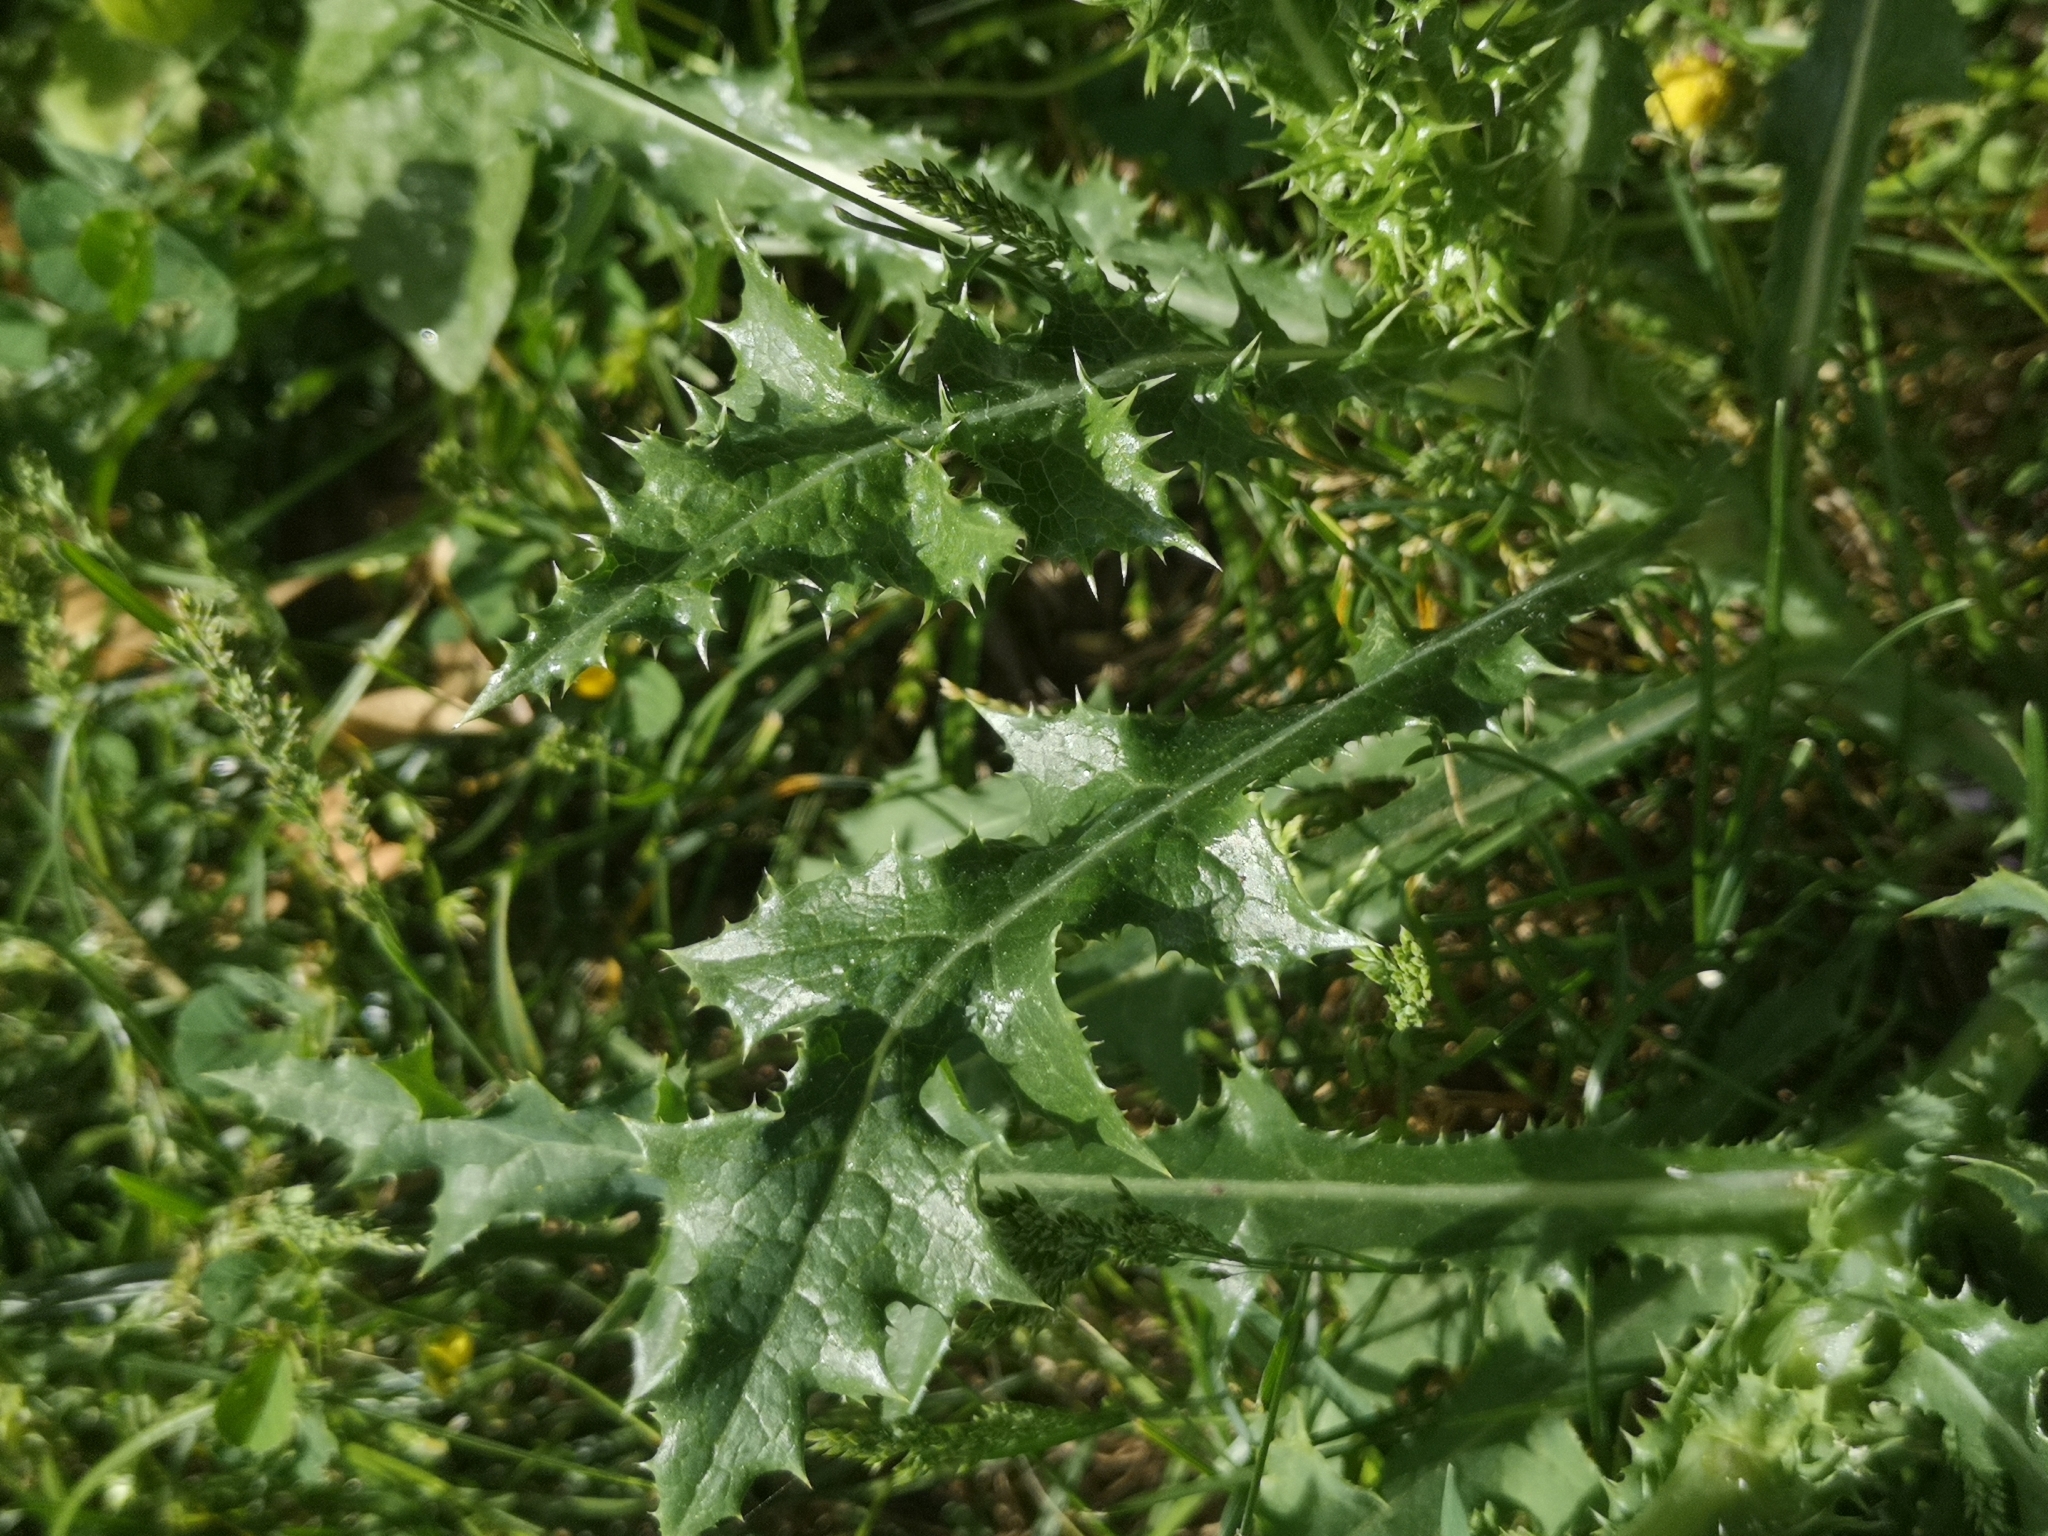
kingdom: Plantae
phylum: Tracheophyta
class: Magnoliopsida
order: Asterales
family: Asteraceae
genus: Sonchus
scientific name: Sonchus asper
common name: Prickly sow-thistle
